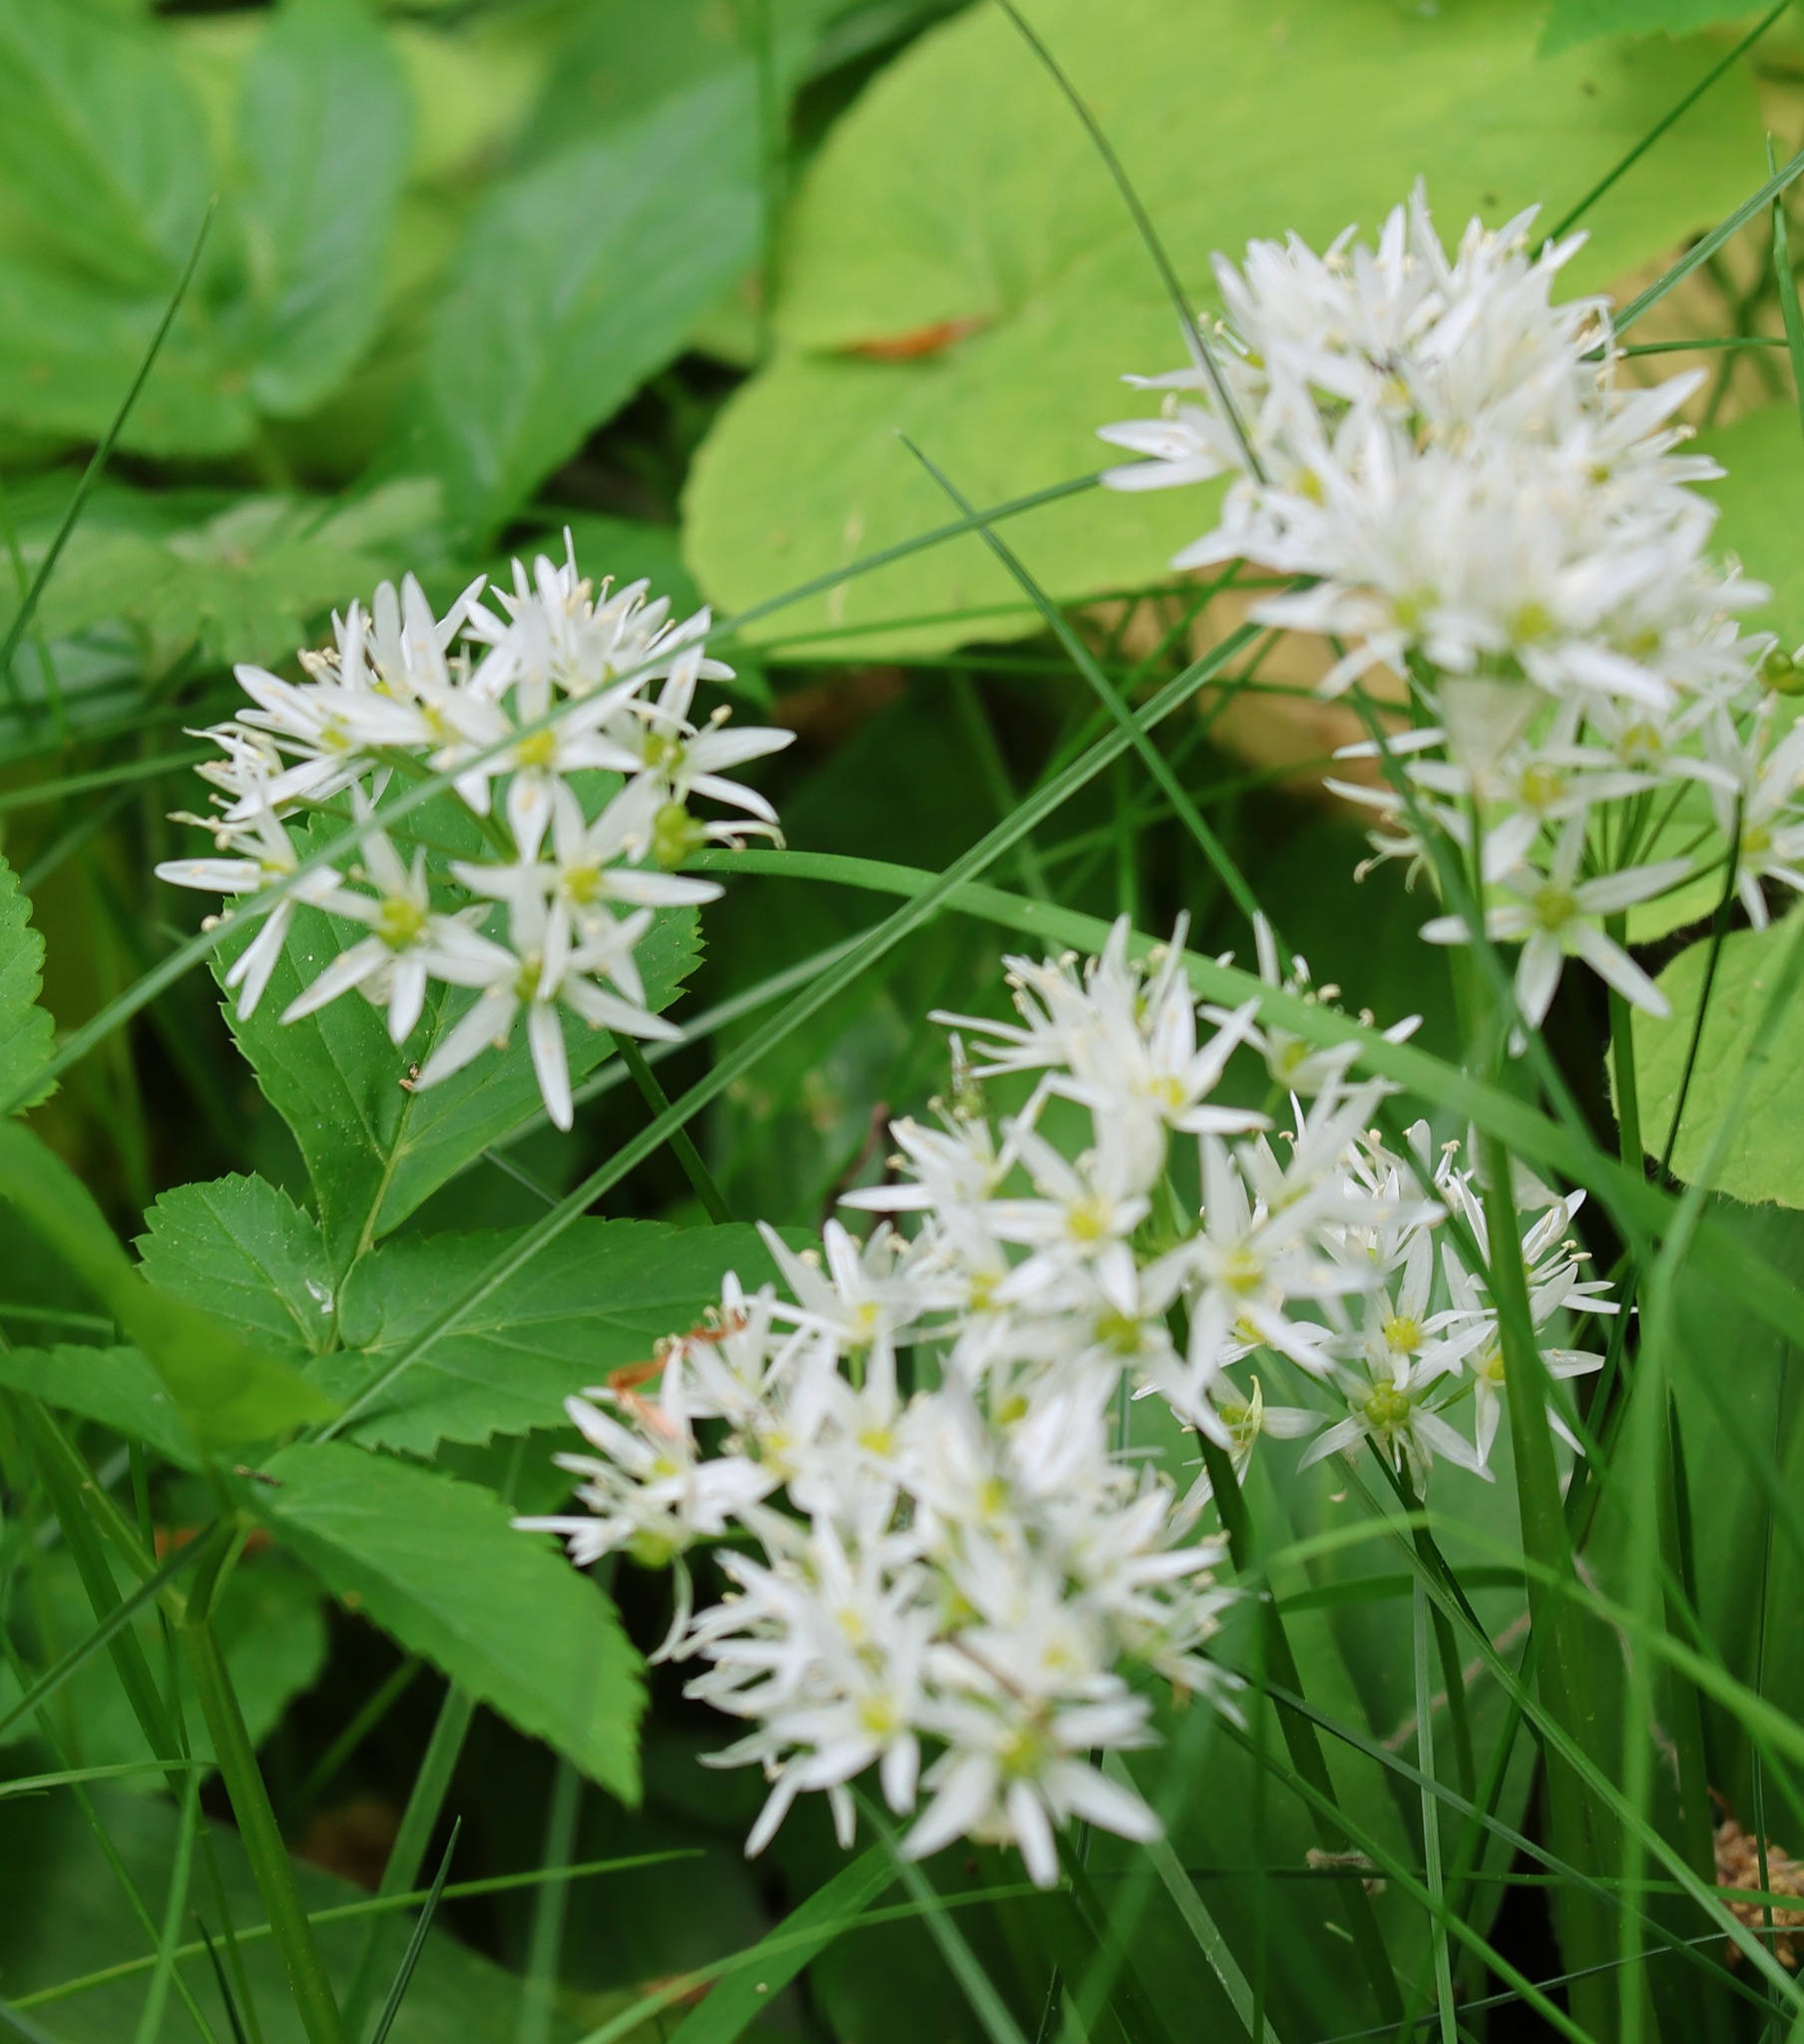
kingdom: Plantae
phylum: Tracheophyta
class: Liliopsida
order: Asparagales
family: Amaryllidaceae
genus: Allium
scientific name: Allium ursinum
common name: Ramsons
